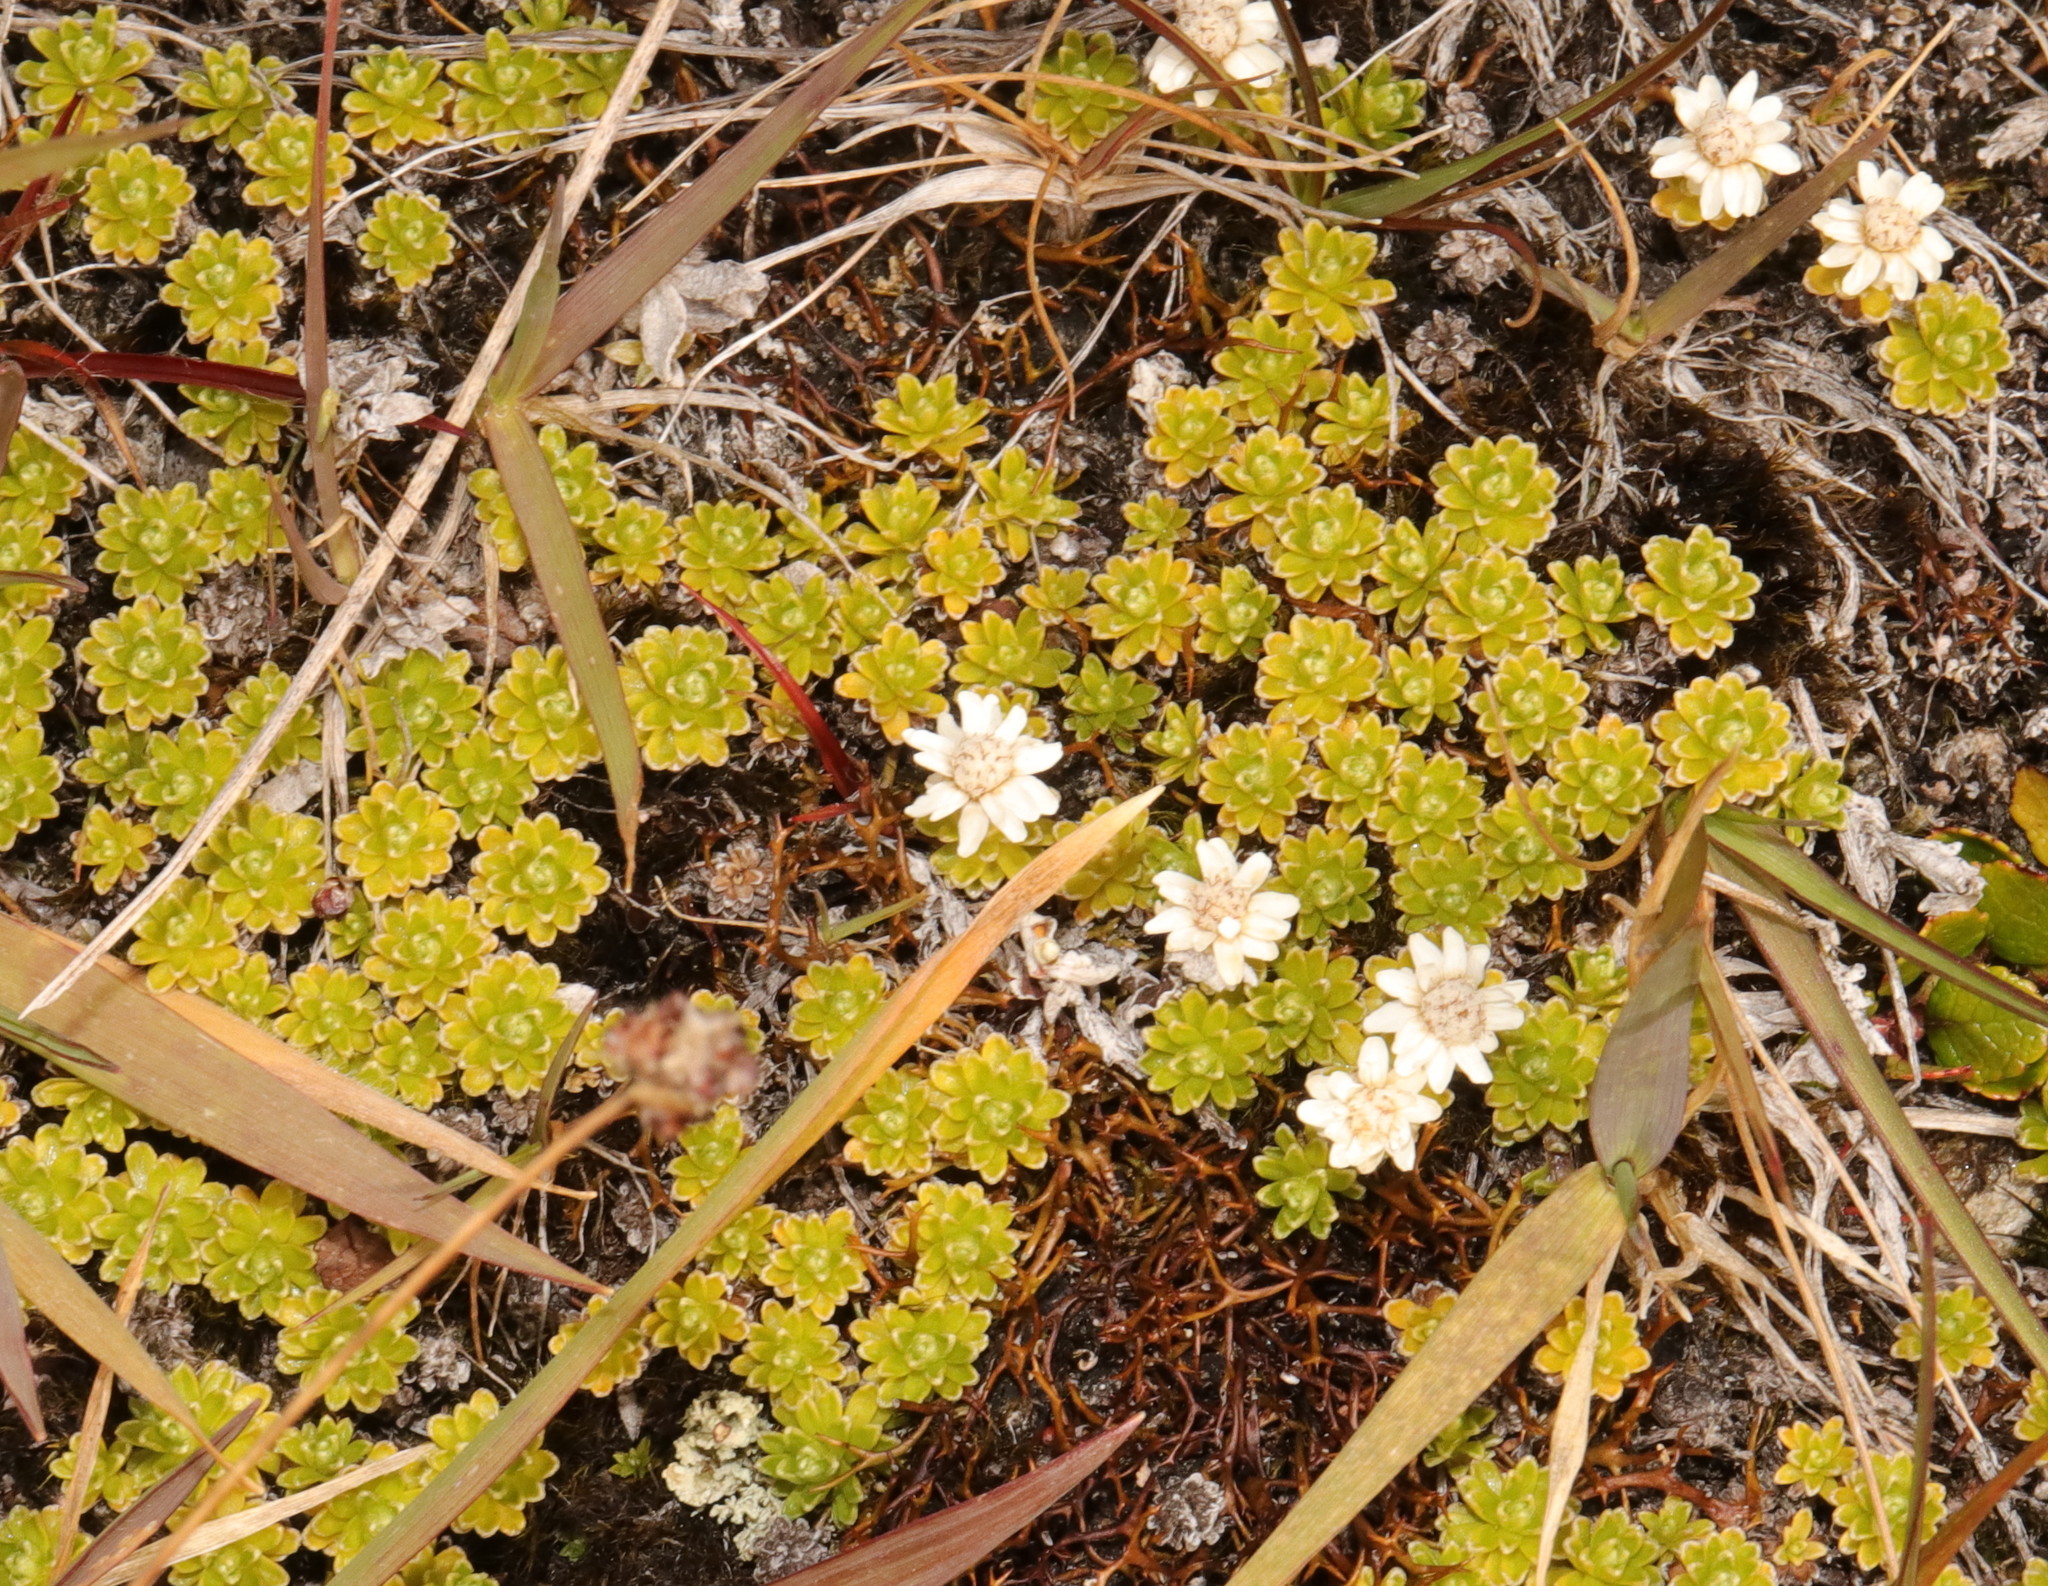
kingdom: Plantae
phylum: Tracheophyta
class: Magnoliopsida
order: Asterales
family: Asteraceae
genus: Raoulia
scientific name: Raoulia subsericea
